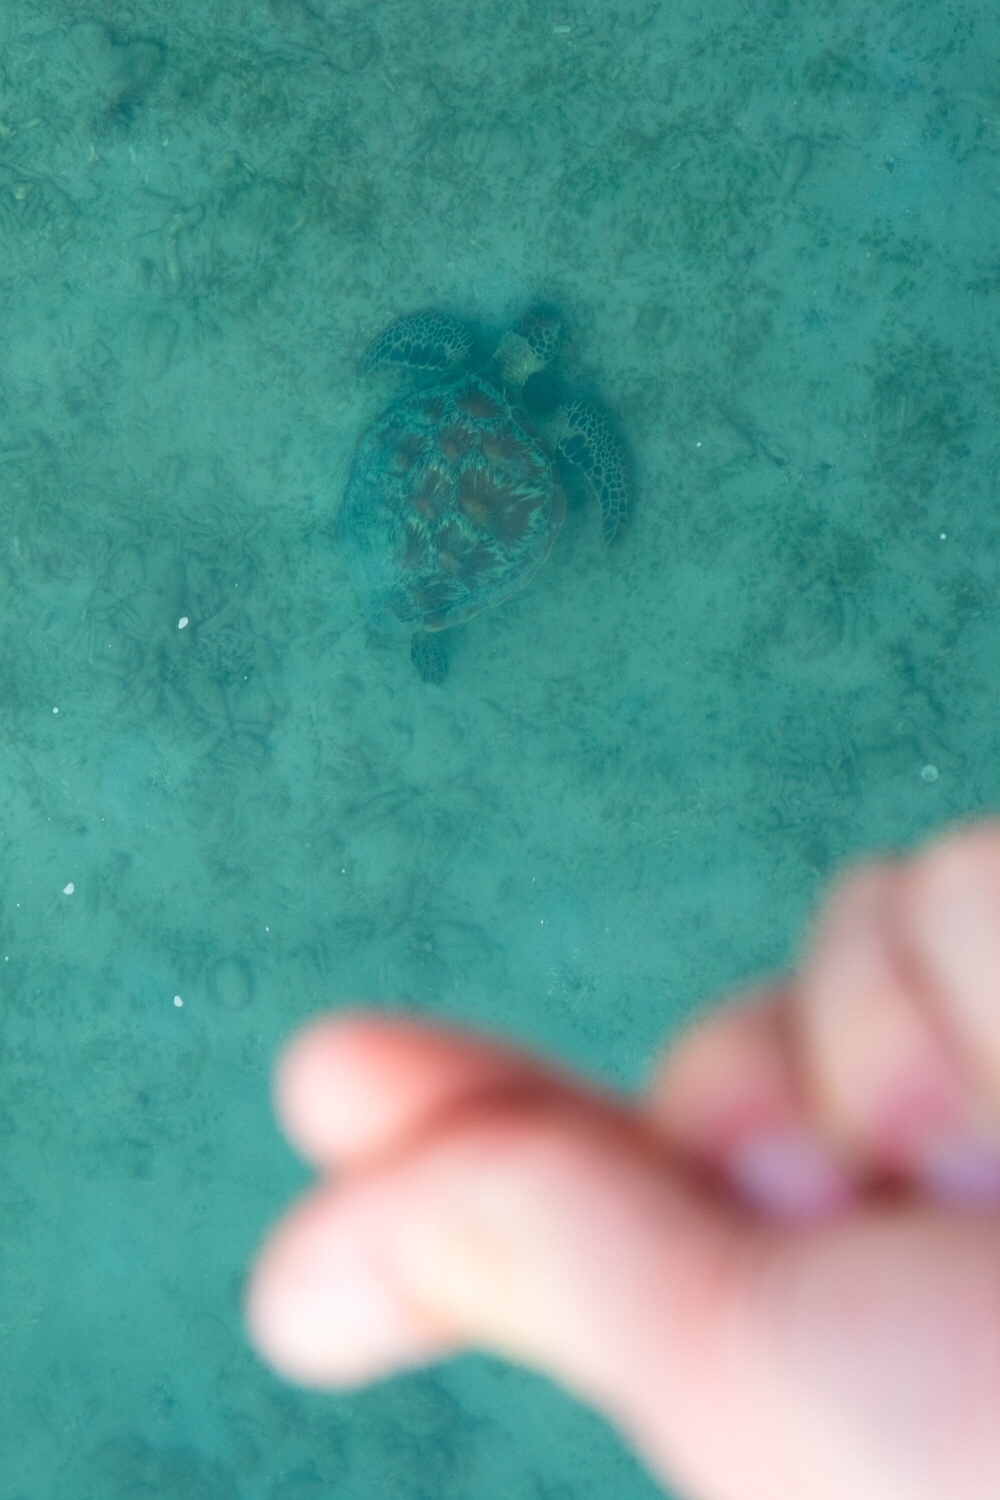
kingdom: Animalia
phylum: Chordata
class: Testudines
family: Cheloniidae
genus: Chelonia
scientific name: Chelonia mydas
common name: Green turtle
